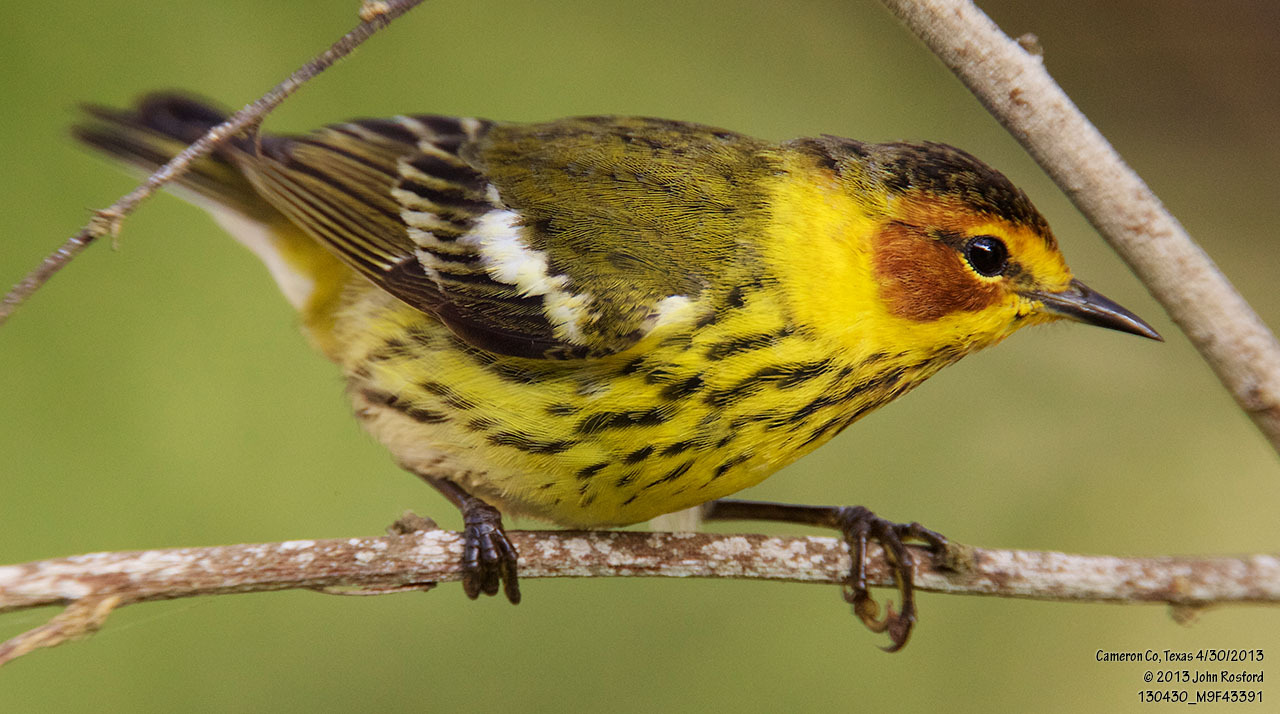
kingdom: Animalia
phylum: Chordata
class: Aves
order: Passeriformes
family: Parulidae
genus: Setophaga
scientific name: Setophaga tigrina
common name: Cape may warbler
